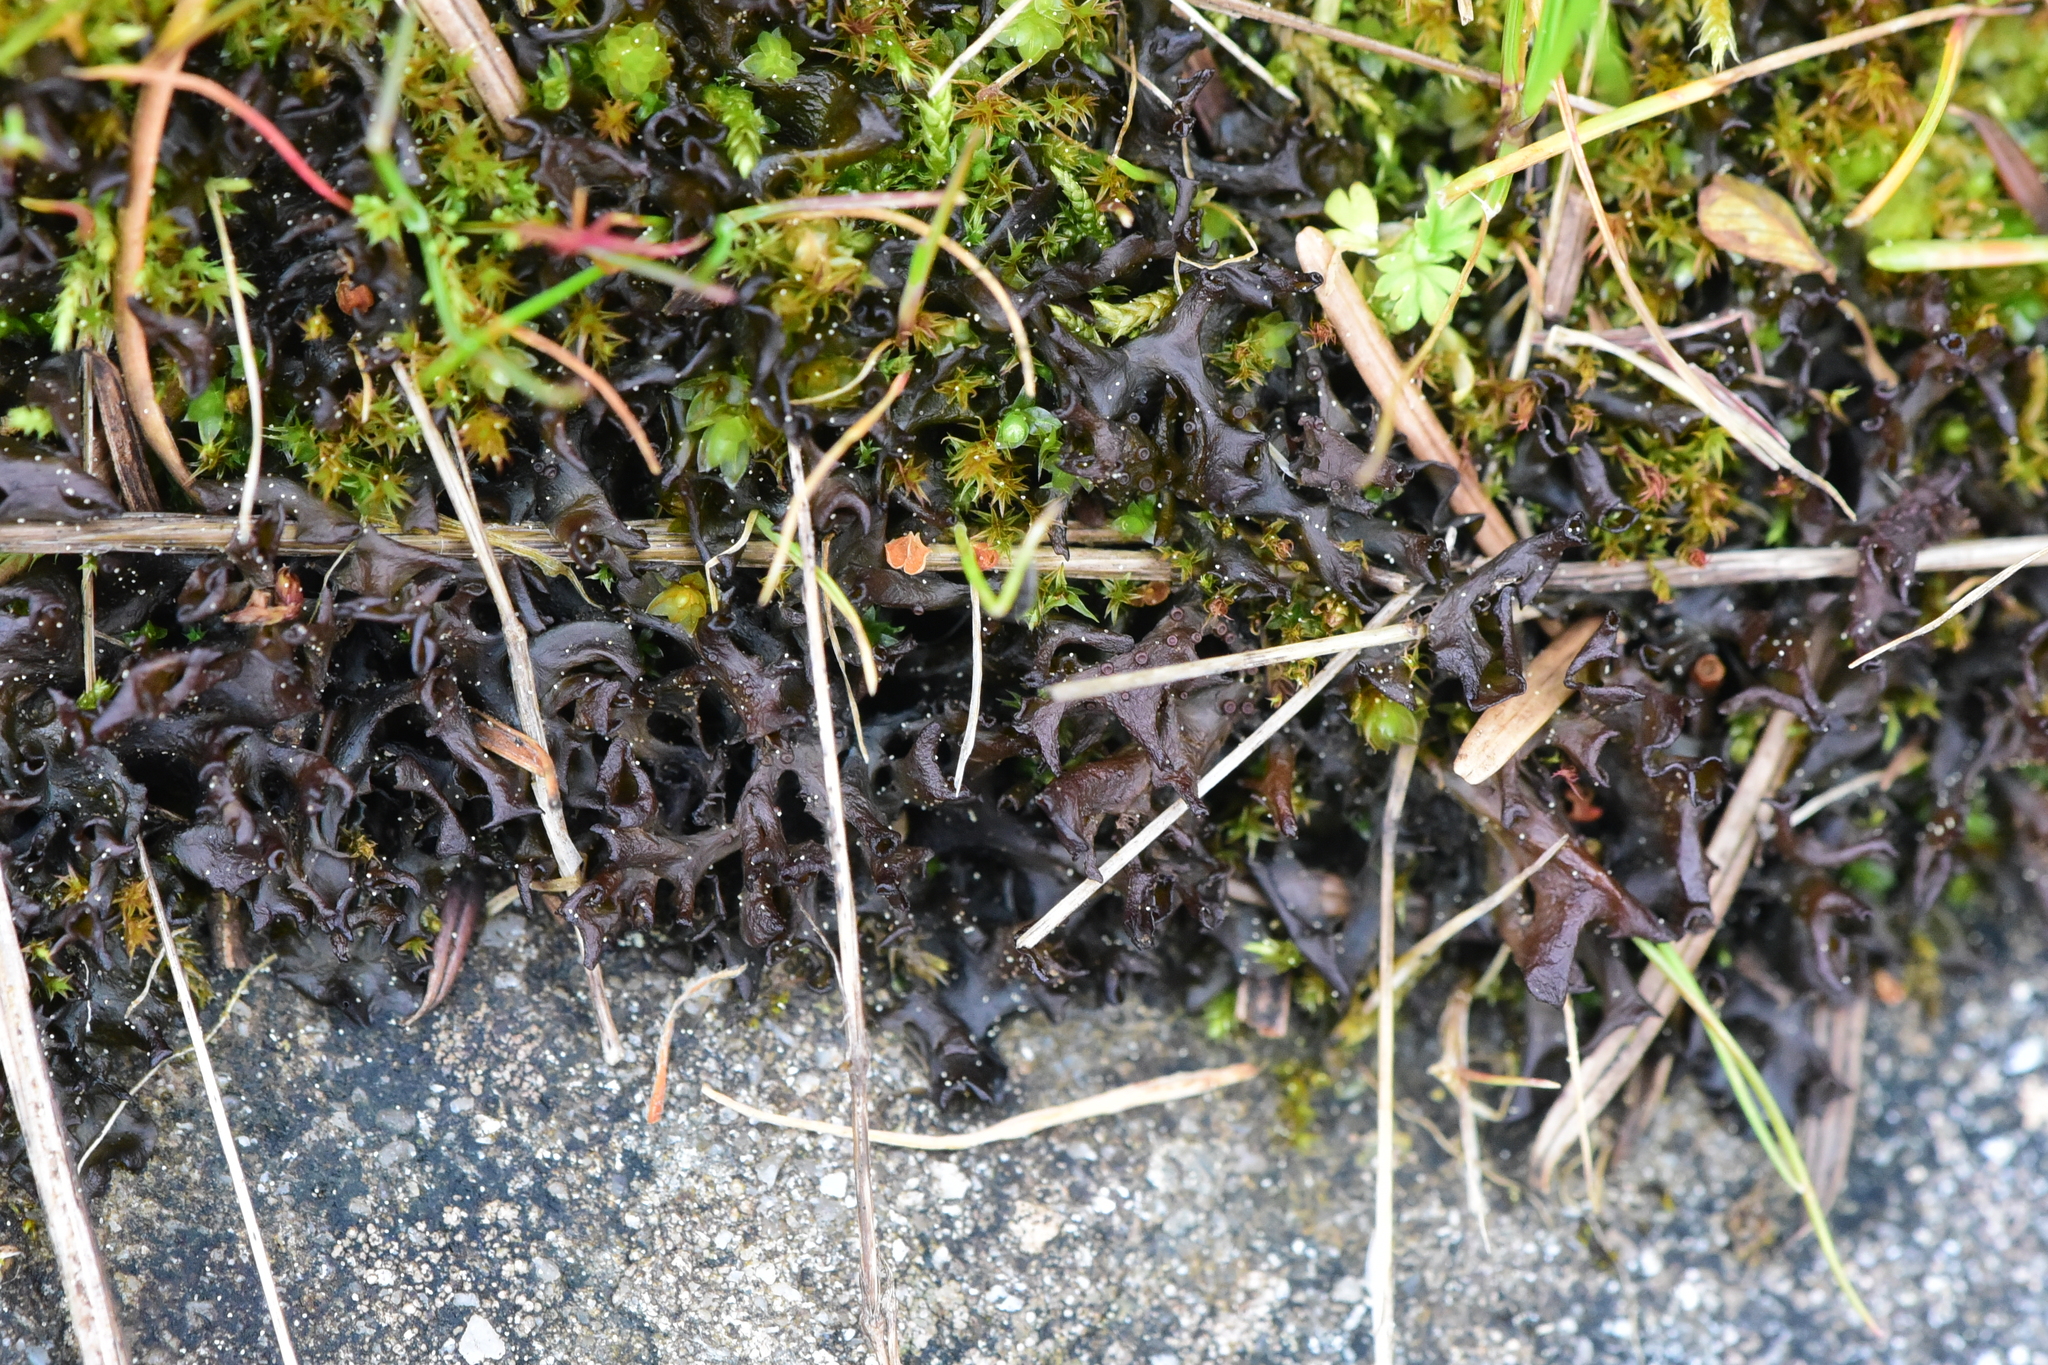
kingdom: Fungi
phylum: Ascomycota
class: Lecanoromycetes
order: Peltigerales
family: Collemataceae
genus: Scytinium
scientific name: Scytinium palmatum
